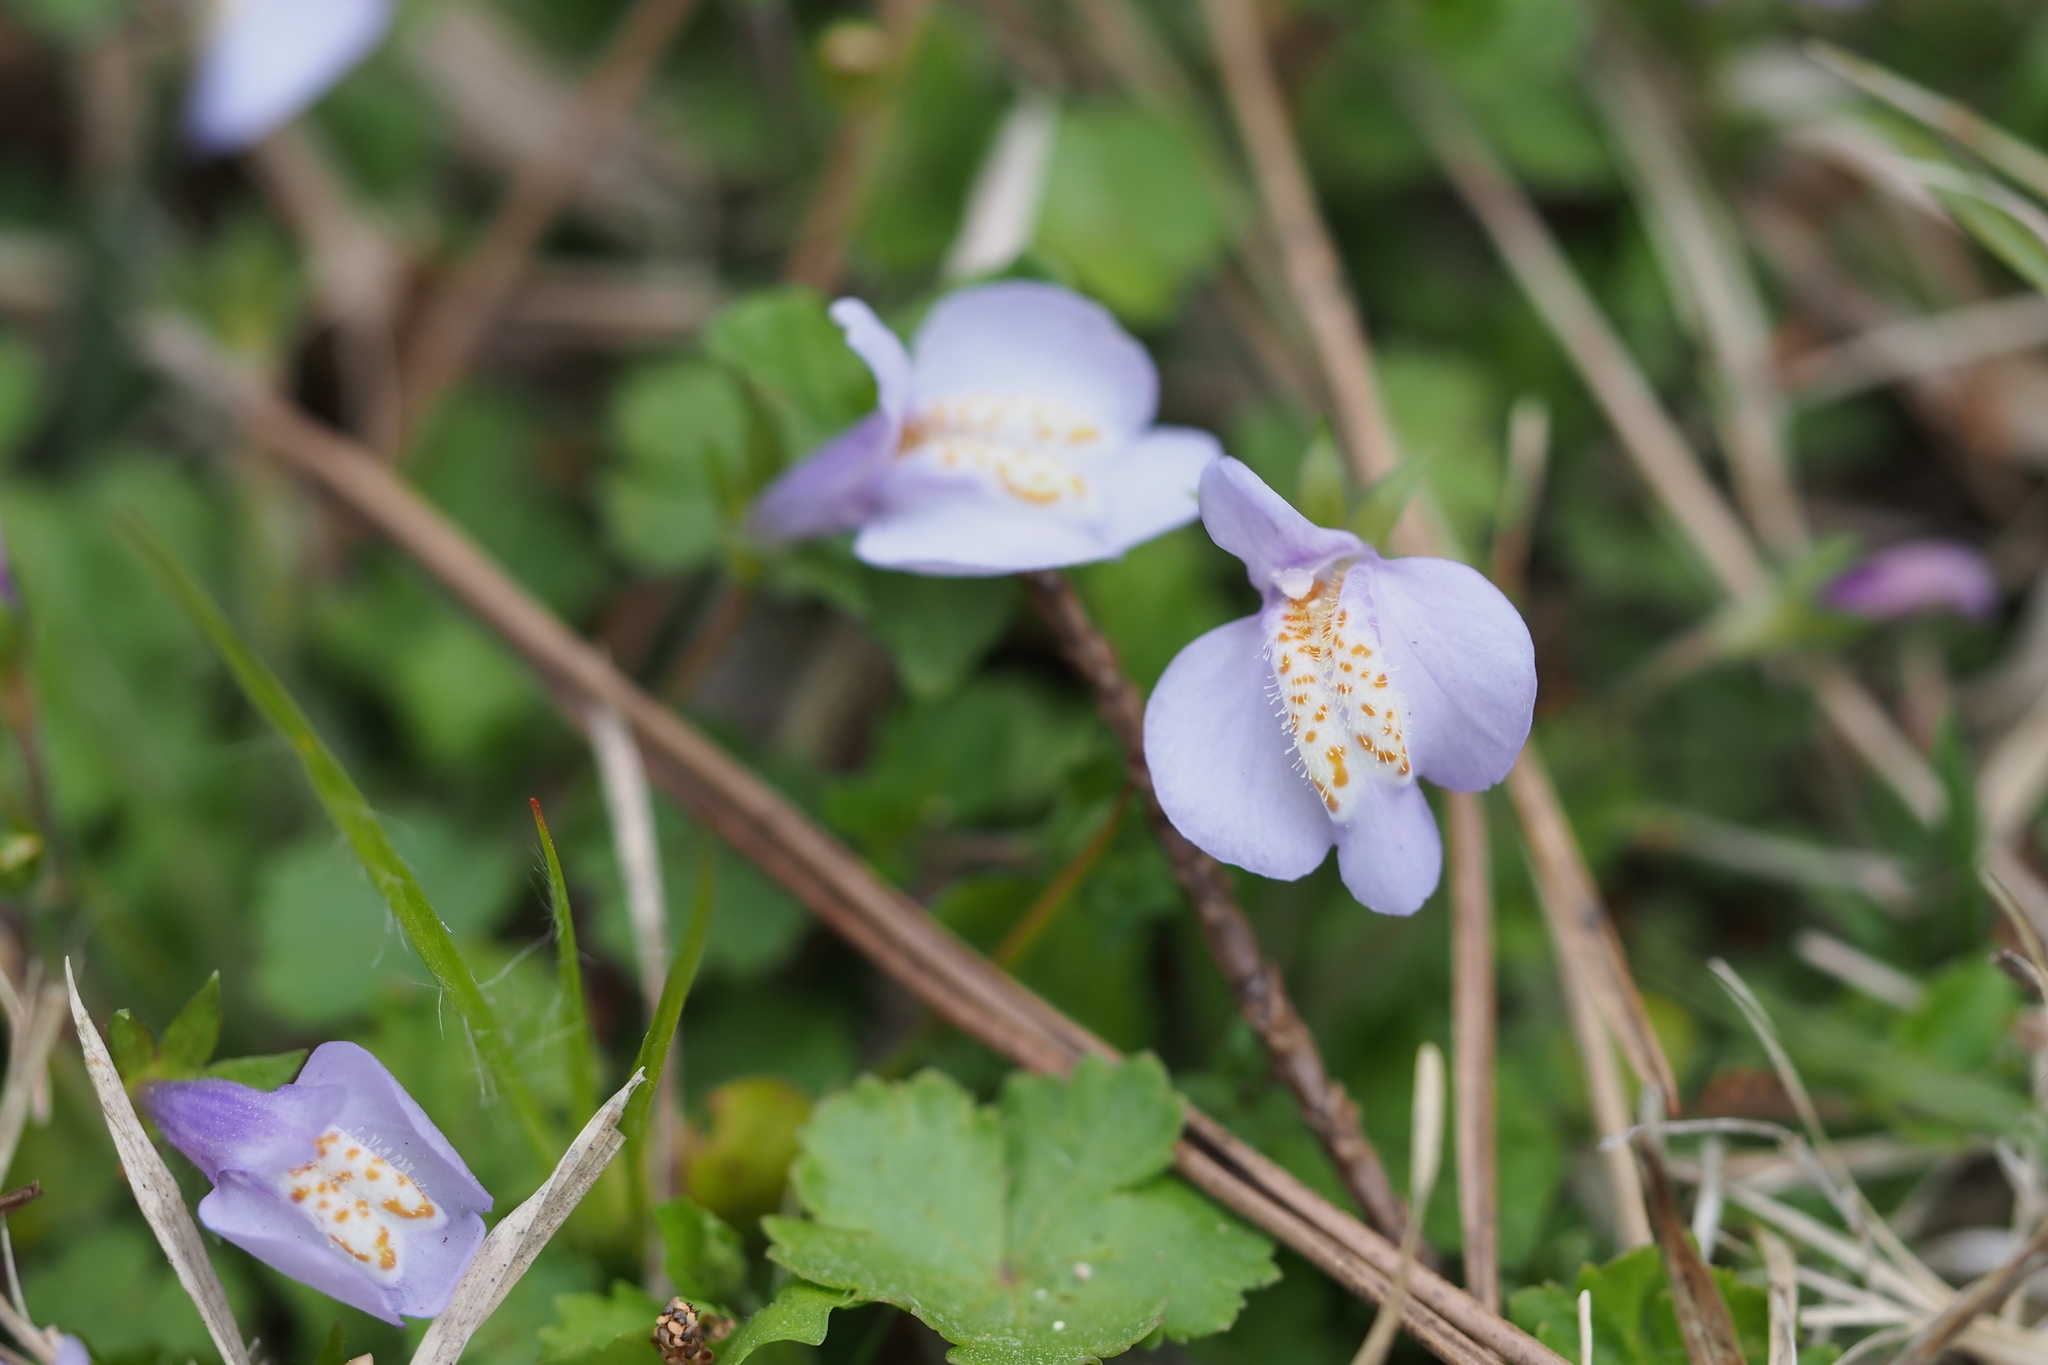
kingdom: Plantae
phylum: Tracheophyta
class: Magnoliopsida
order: Lamiales
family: Mazaceae
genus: Mazus
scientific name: Mazus miquelii
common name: Miquel's mazus
